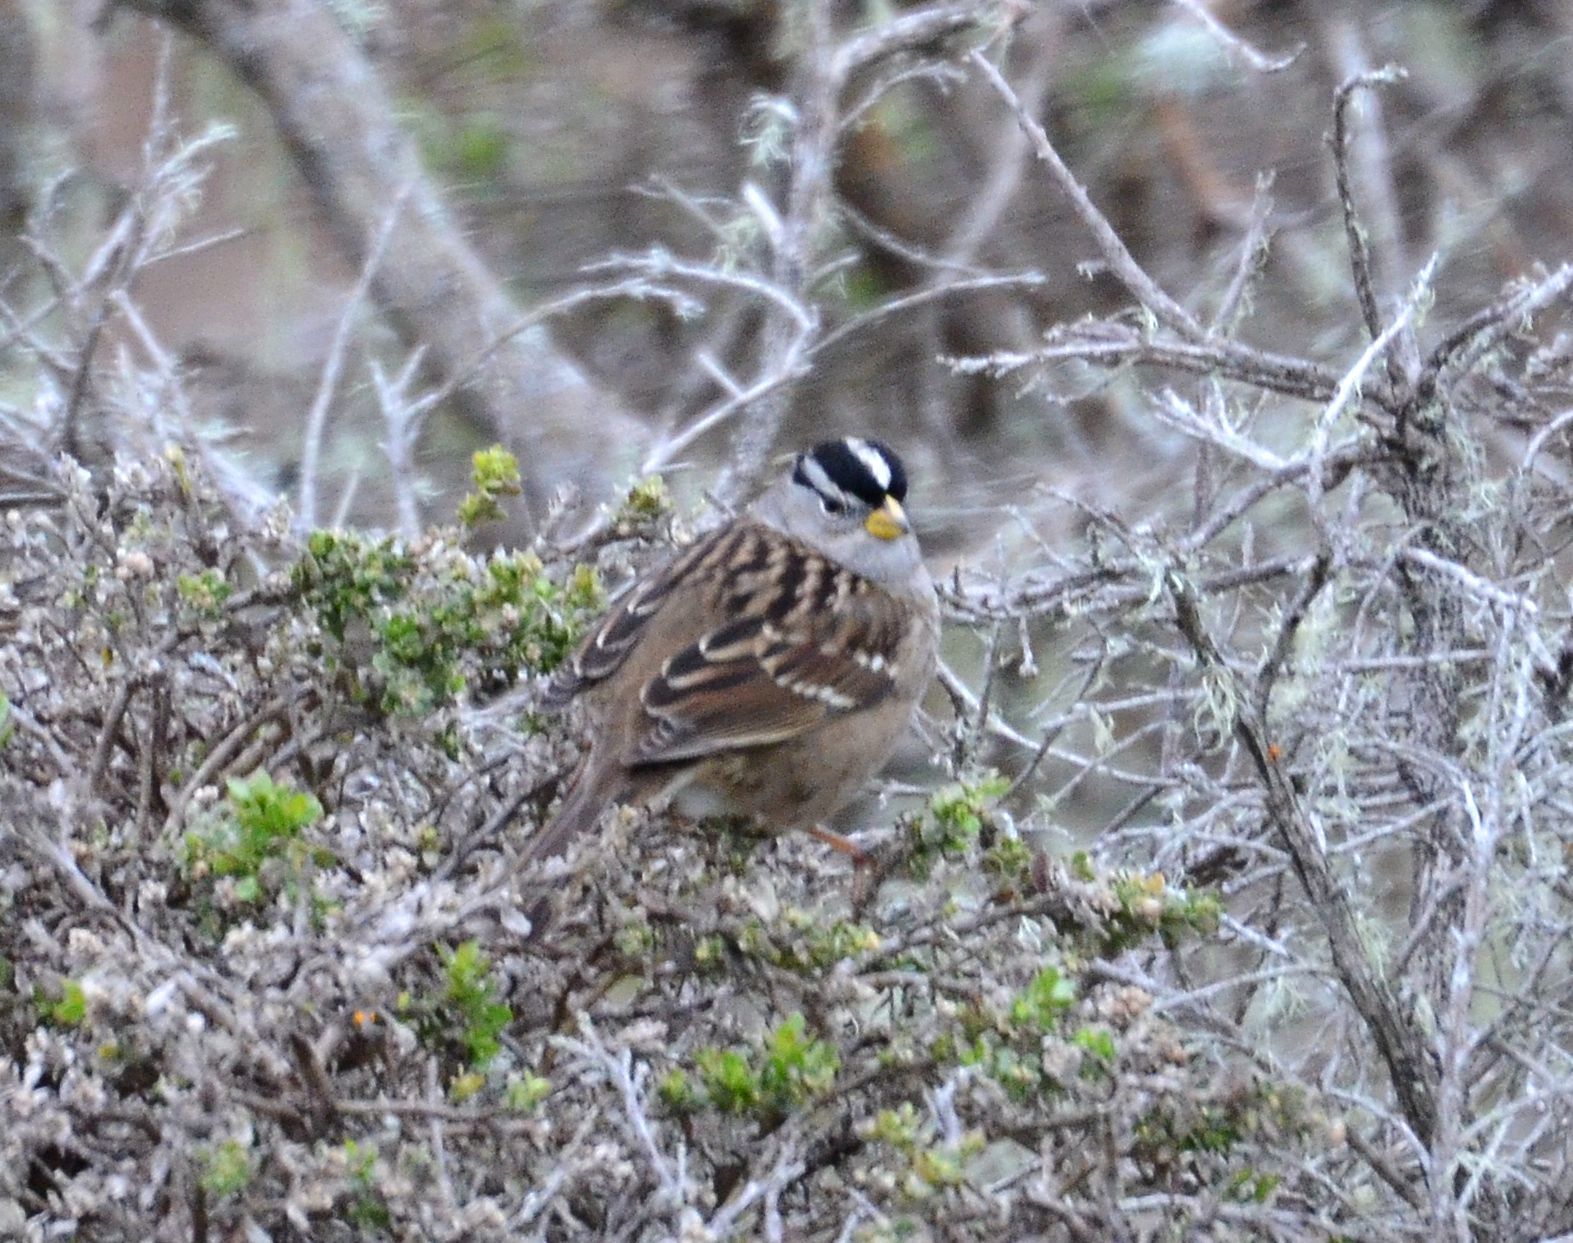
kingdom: Animalia
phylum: Chordata
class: Aves
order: Passeriformes
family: Passerellidae
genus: Zonotrichia
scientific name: Zonotrichia leucophrys
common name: White-crowned sparrow
